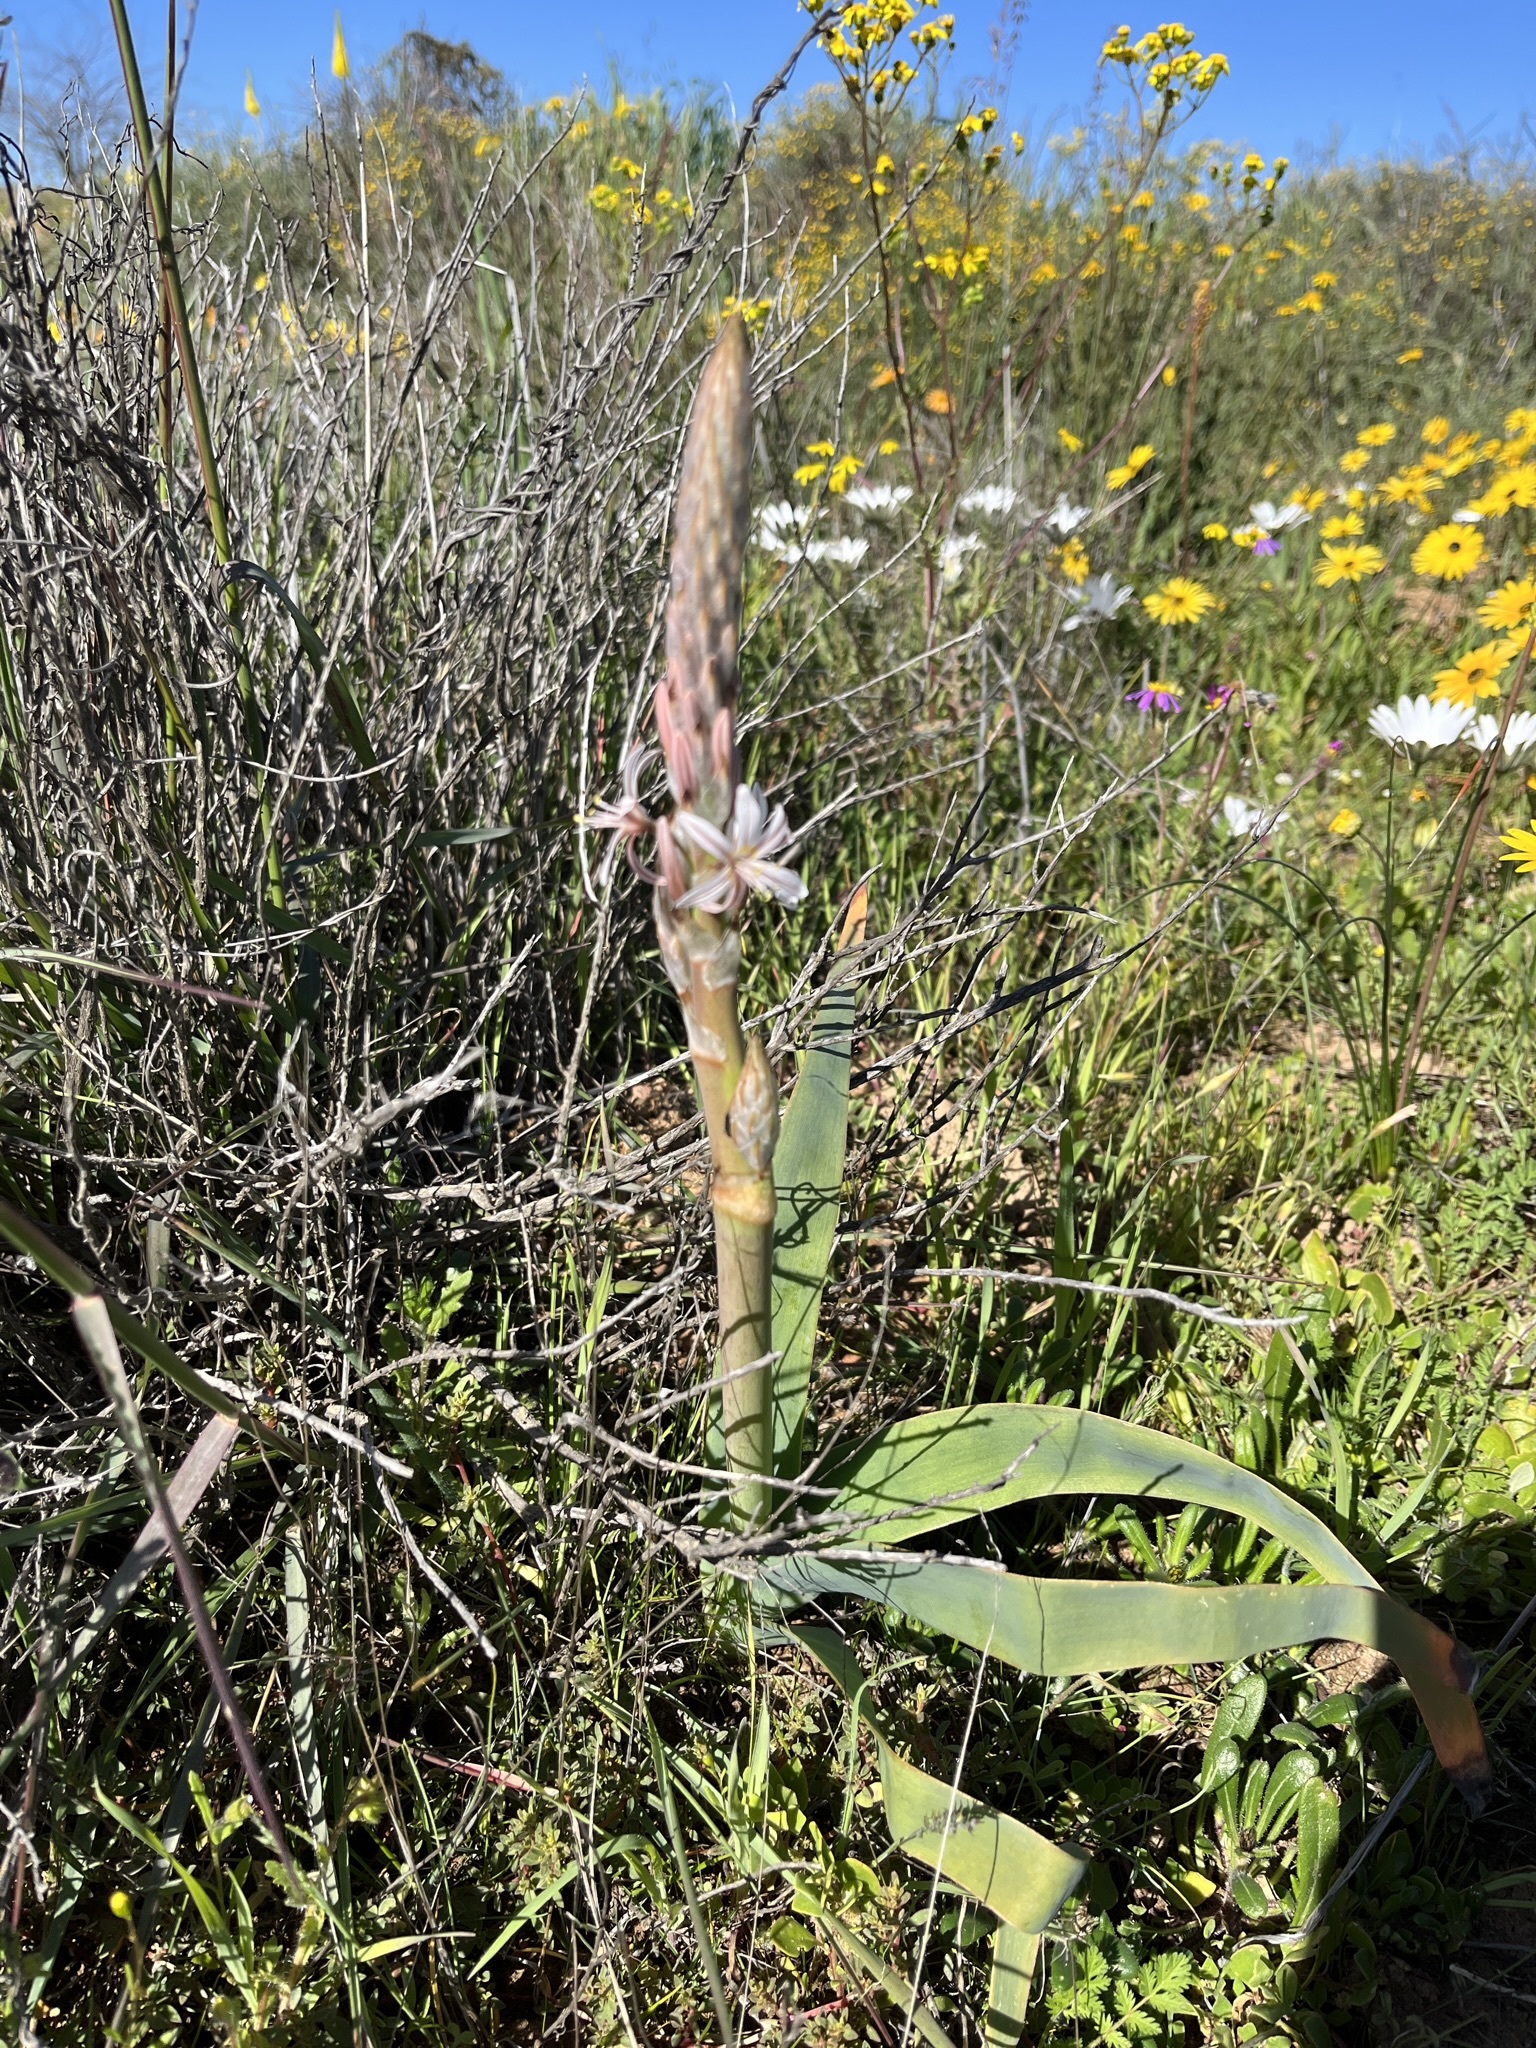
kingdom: Plantae
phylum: Tracheophyta
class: Liliopsida
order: Asparagales
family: Asphodelaceae
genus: Trachyandra
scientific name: Trachyandra falcata
